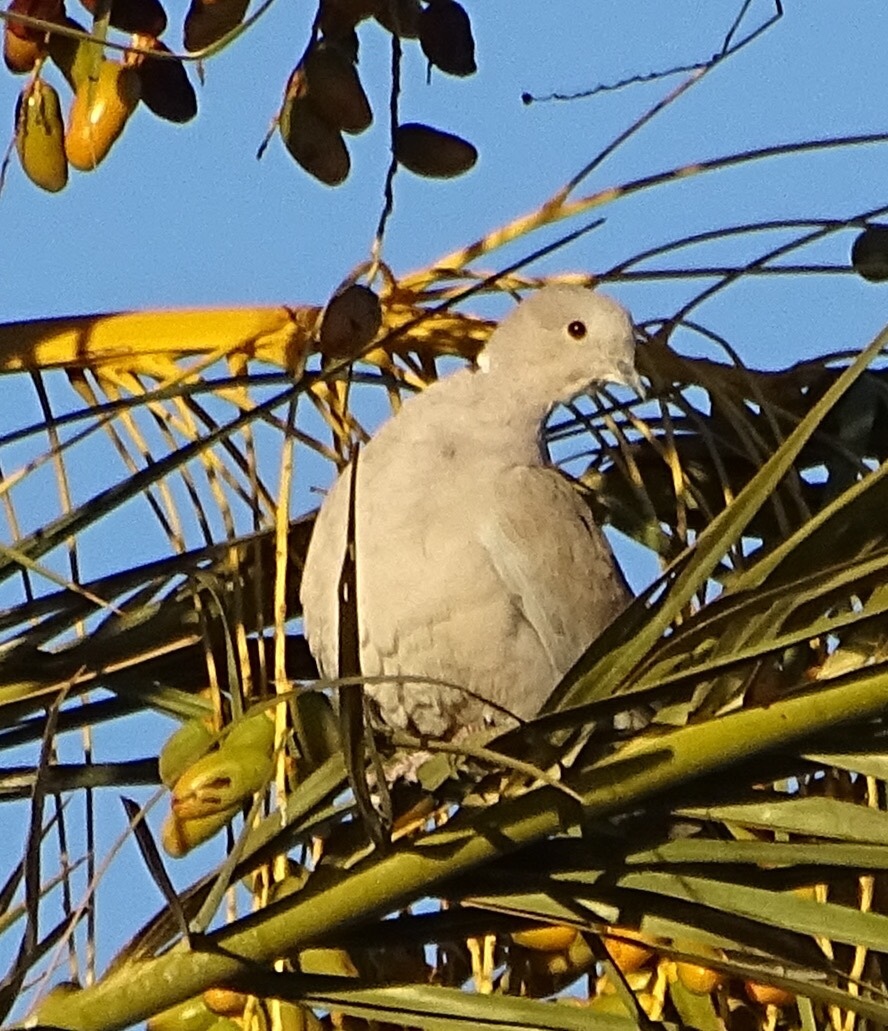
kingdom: Animalia
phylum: Chordata
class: Aves
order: Columbiformes
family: Columbidae
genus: Streptopelia
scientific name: Streptopelia decaocto
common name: Eurasian collared dove
